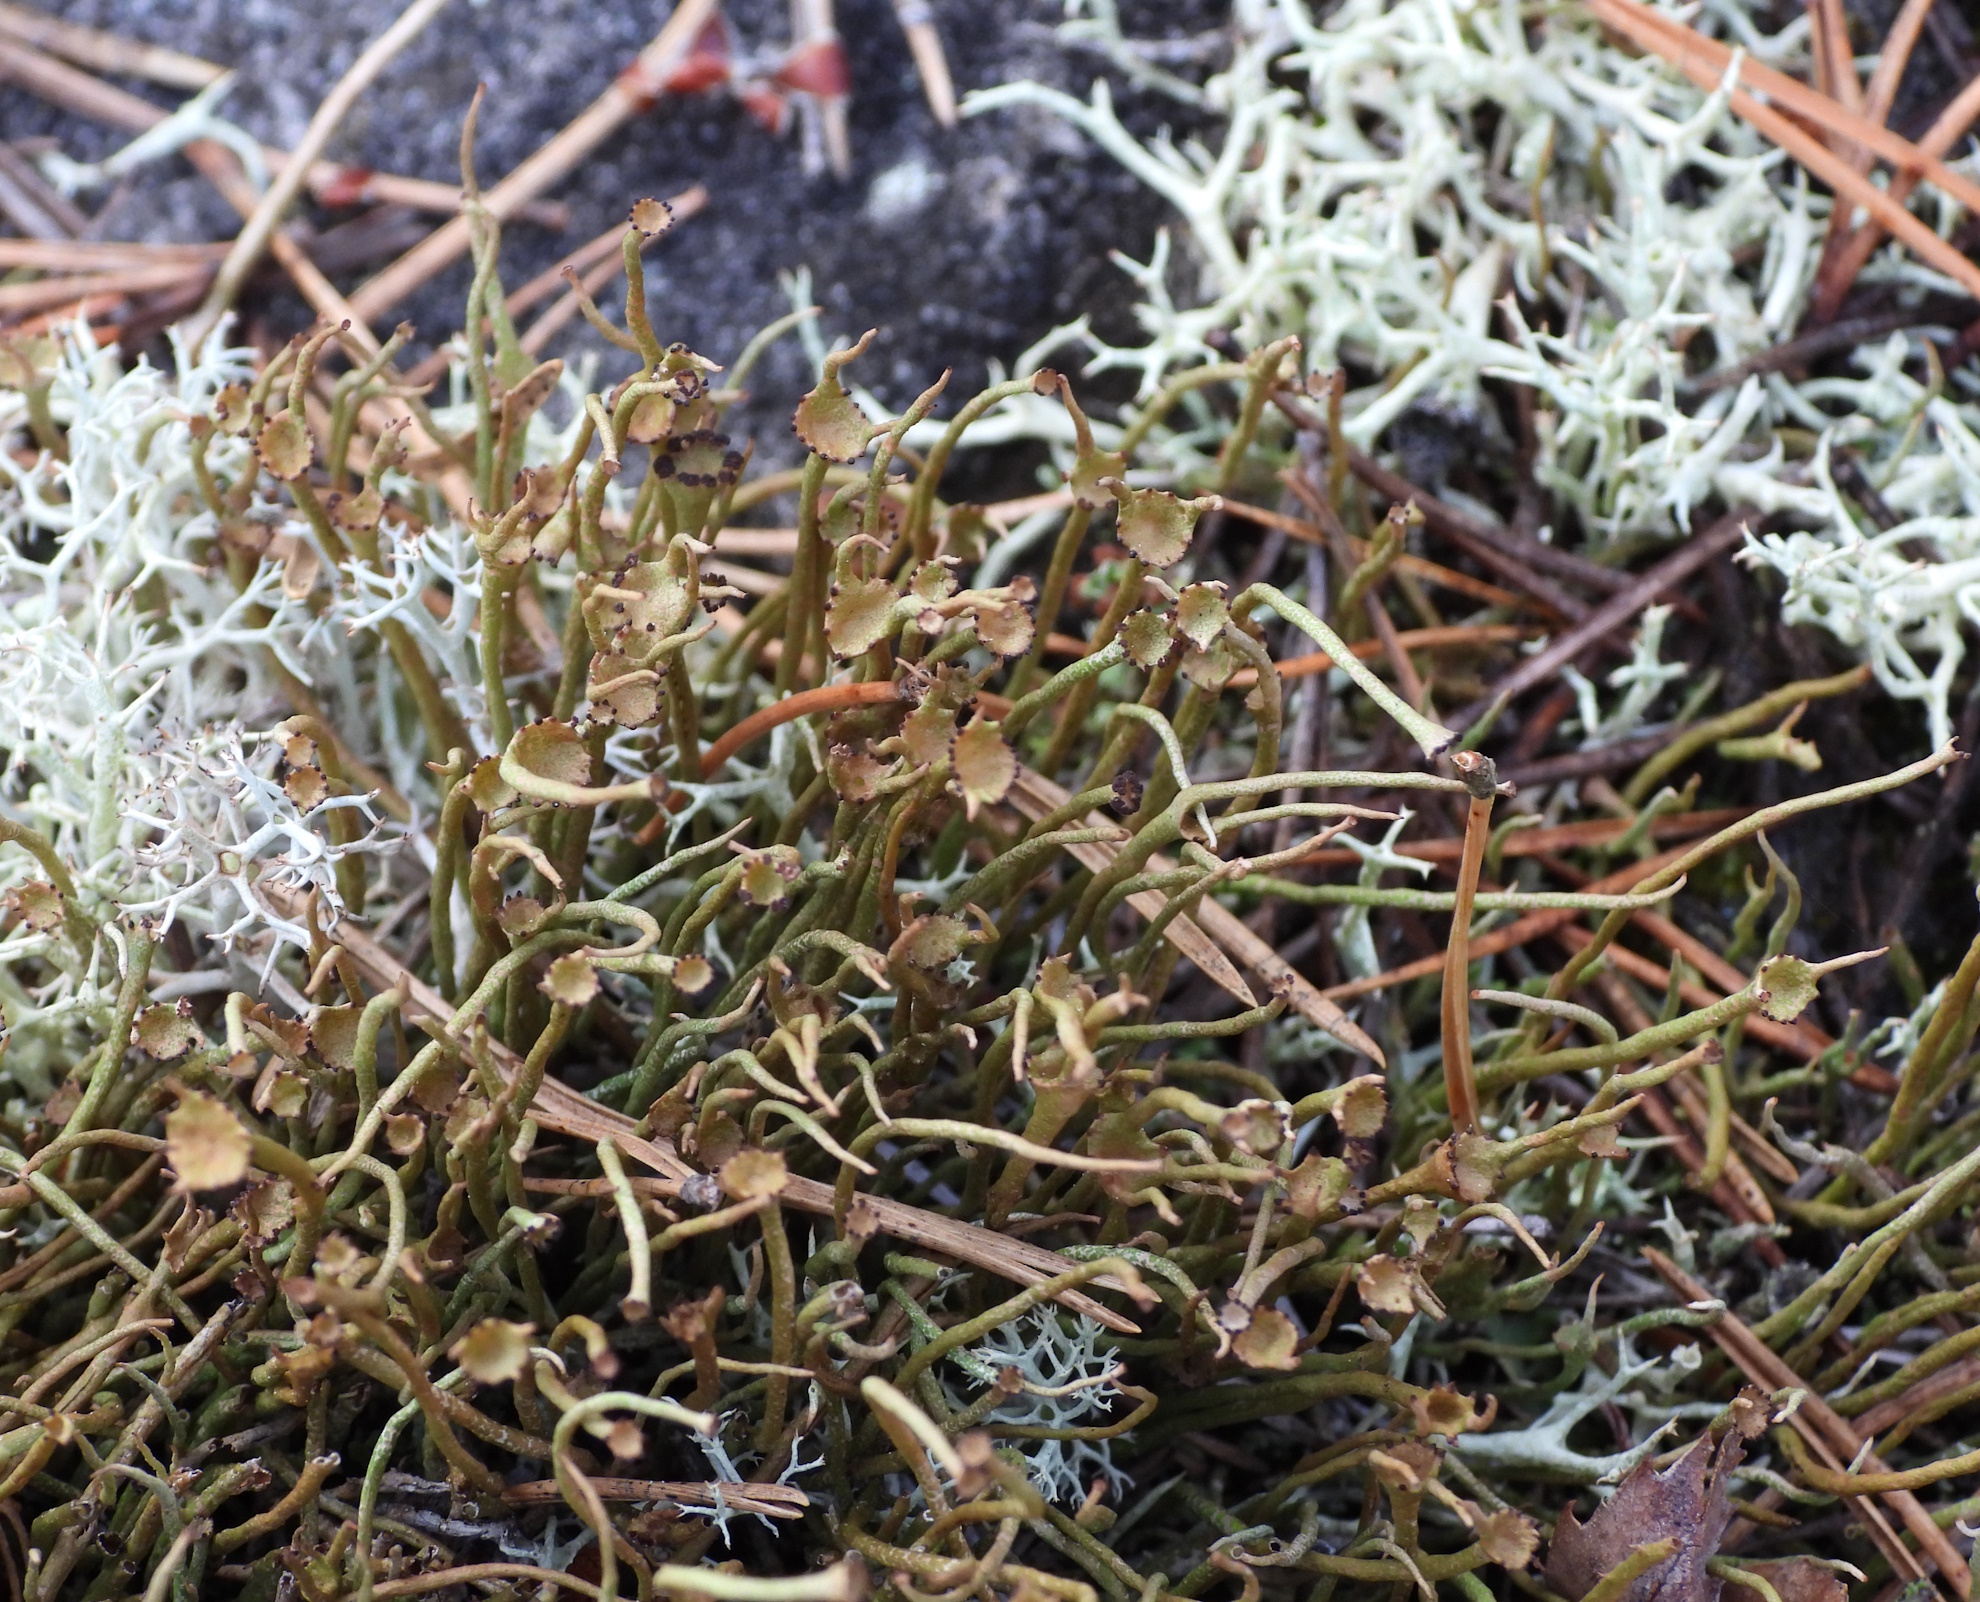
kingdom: Fungi
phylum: Ascomycota
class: Lecanoromycetes
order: Lecanorales
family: Cladoniaceae
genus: Cladonia
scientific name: Cladonia gracilis
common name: Smooth clad lichen
